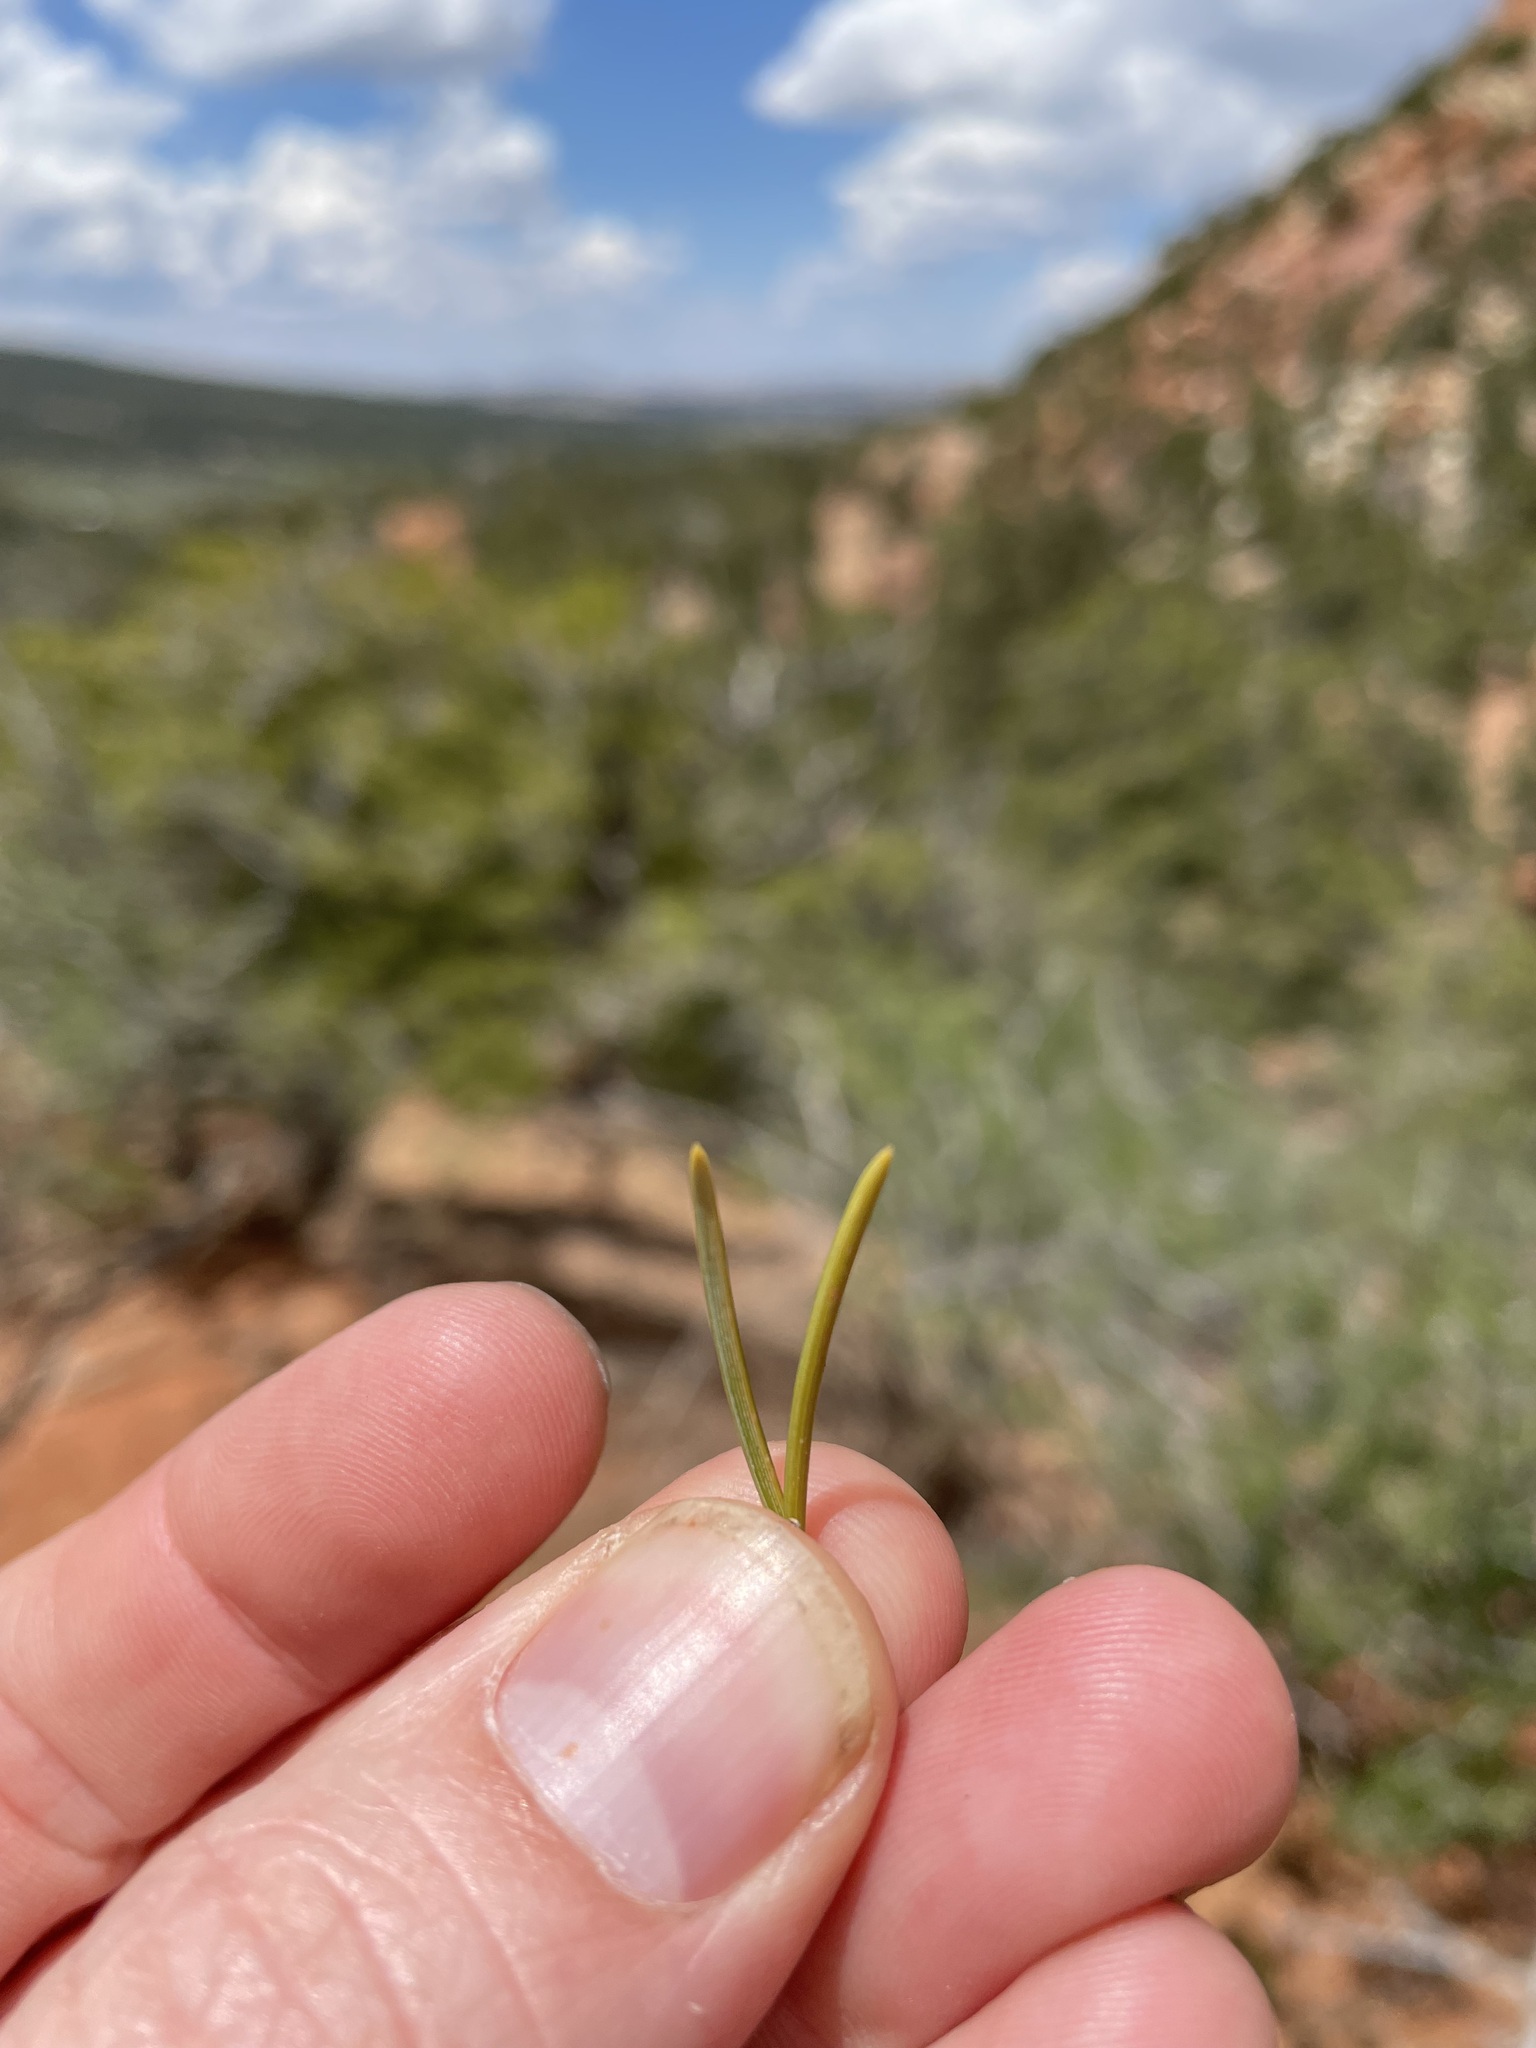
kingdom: Plantae
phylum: Tracheophyta
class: Pinopsida
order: Pinales
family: Pinaceae
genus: Pinus
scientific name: Pinus edulis
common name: Colorado pinyon
